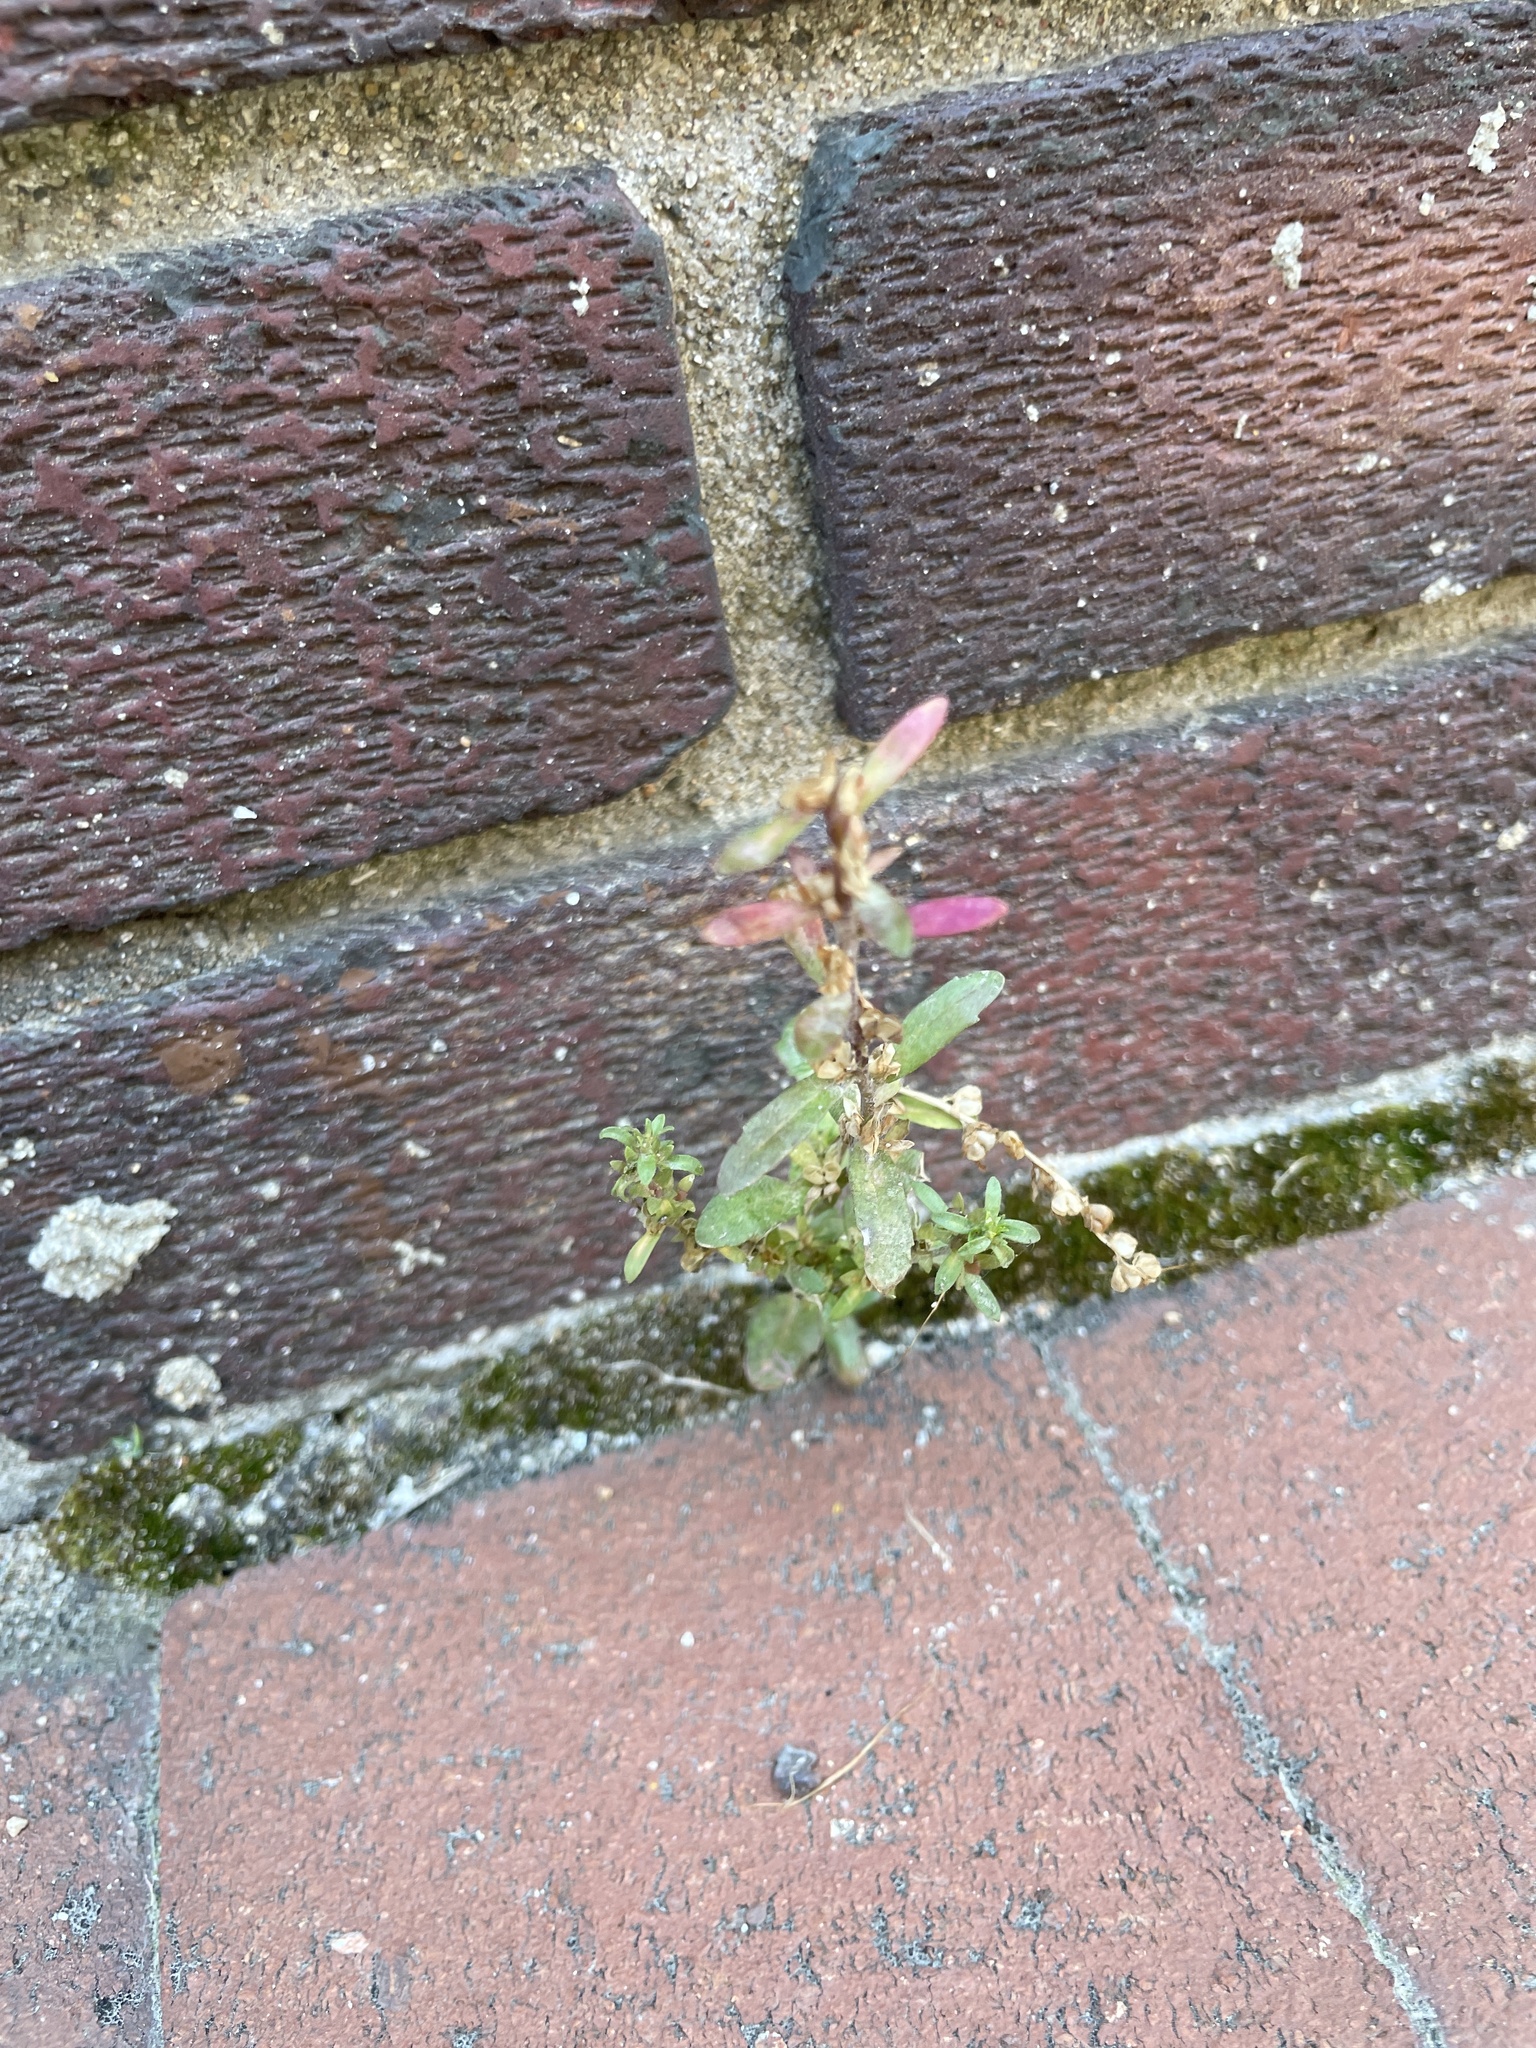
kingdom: Plantae
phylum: Tracheophyta
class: Magnoliopsida
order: Lamiales
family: Plantaginaceae
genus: Veronica
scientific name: Veronica peregrina
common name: Neckweed
